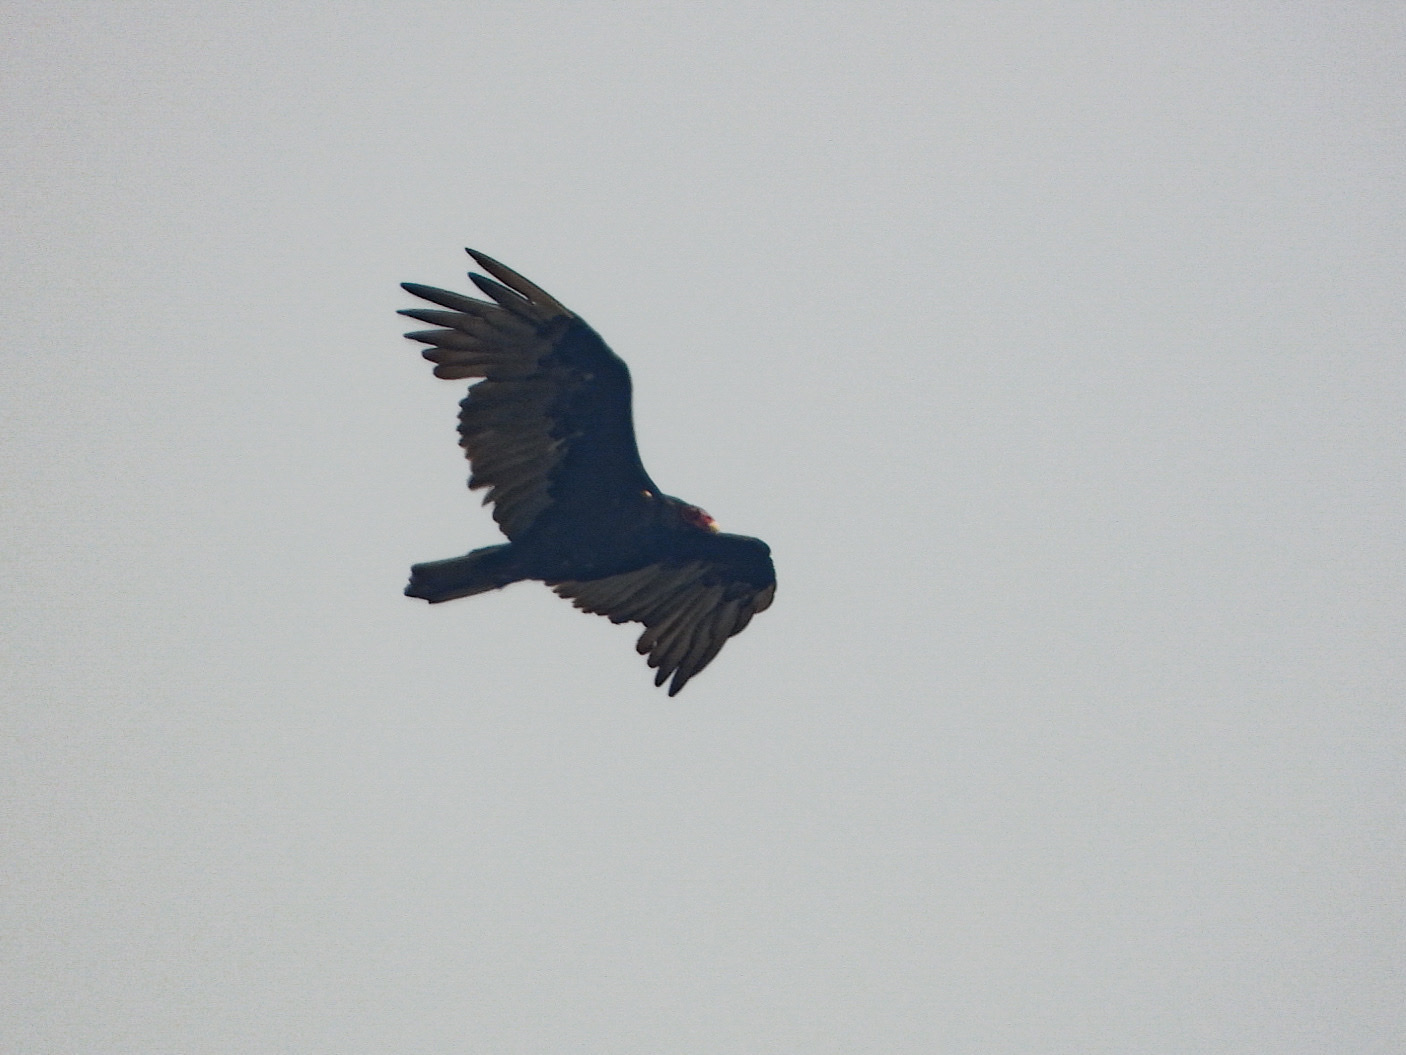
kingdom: Animalia
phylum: Chordata
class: Aves
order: Accipitriformes
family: Cathartidae
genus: Cathartes
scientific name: Cathartes aura
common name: Turkey vulture
